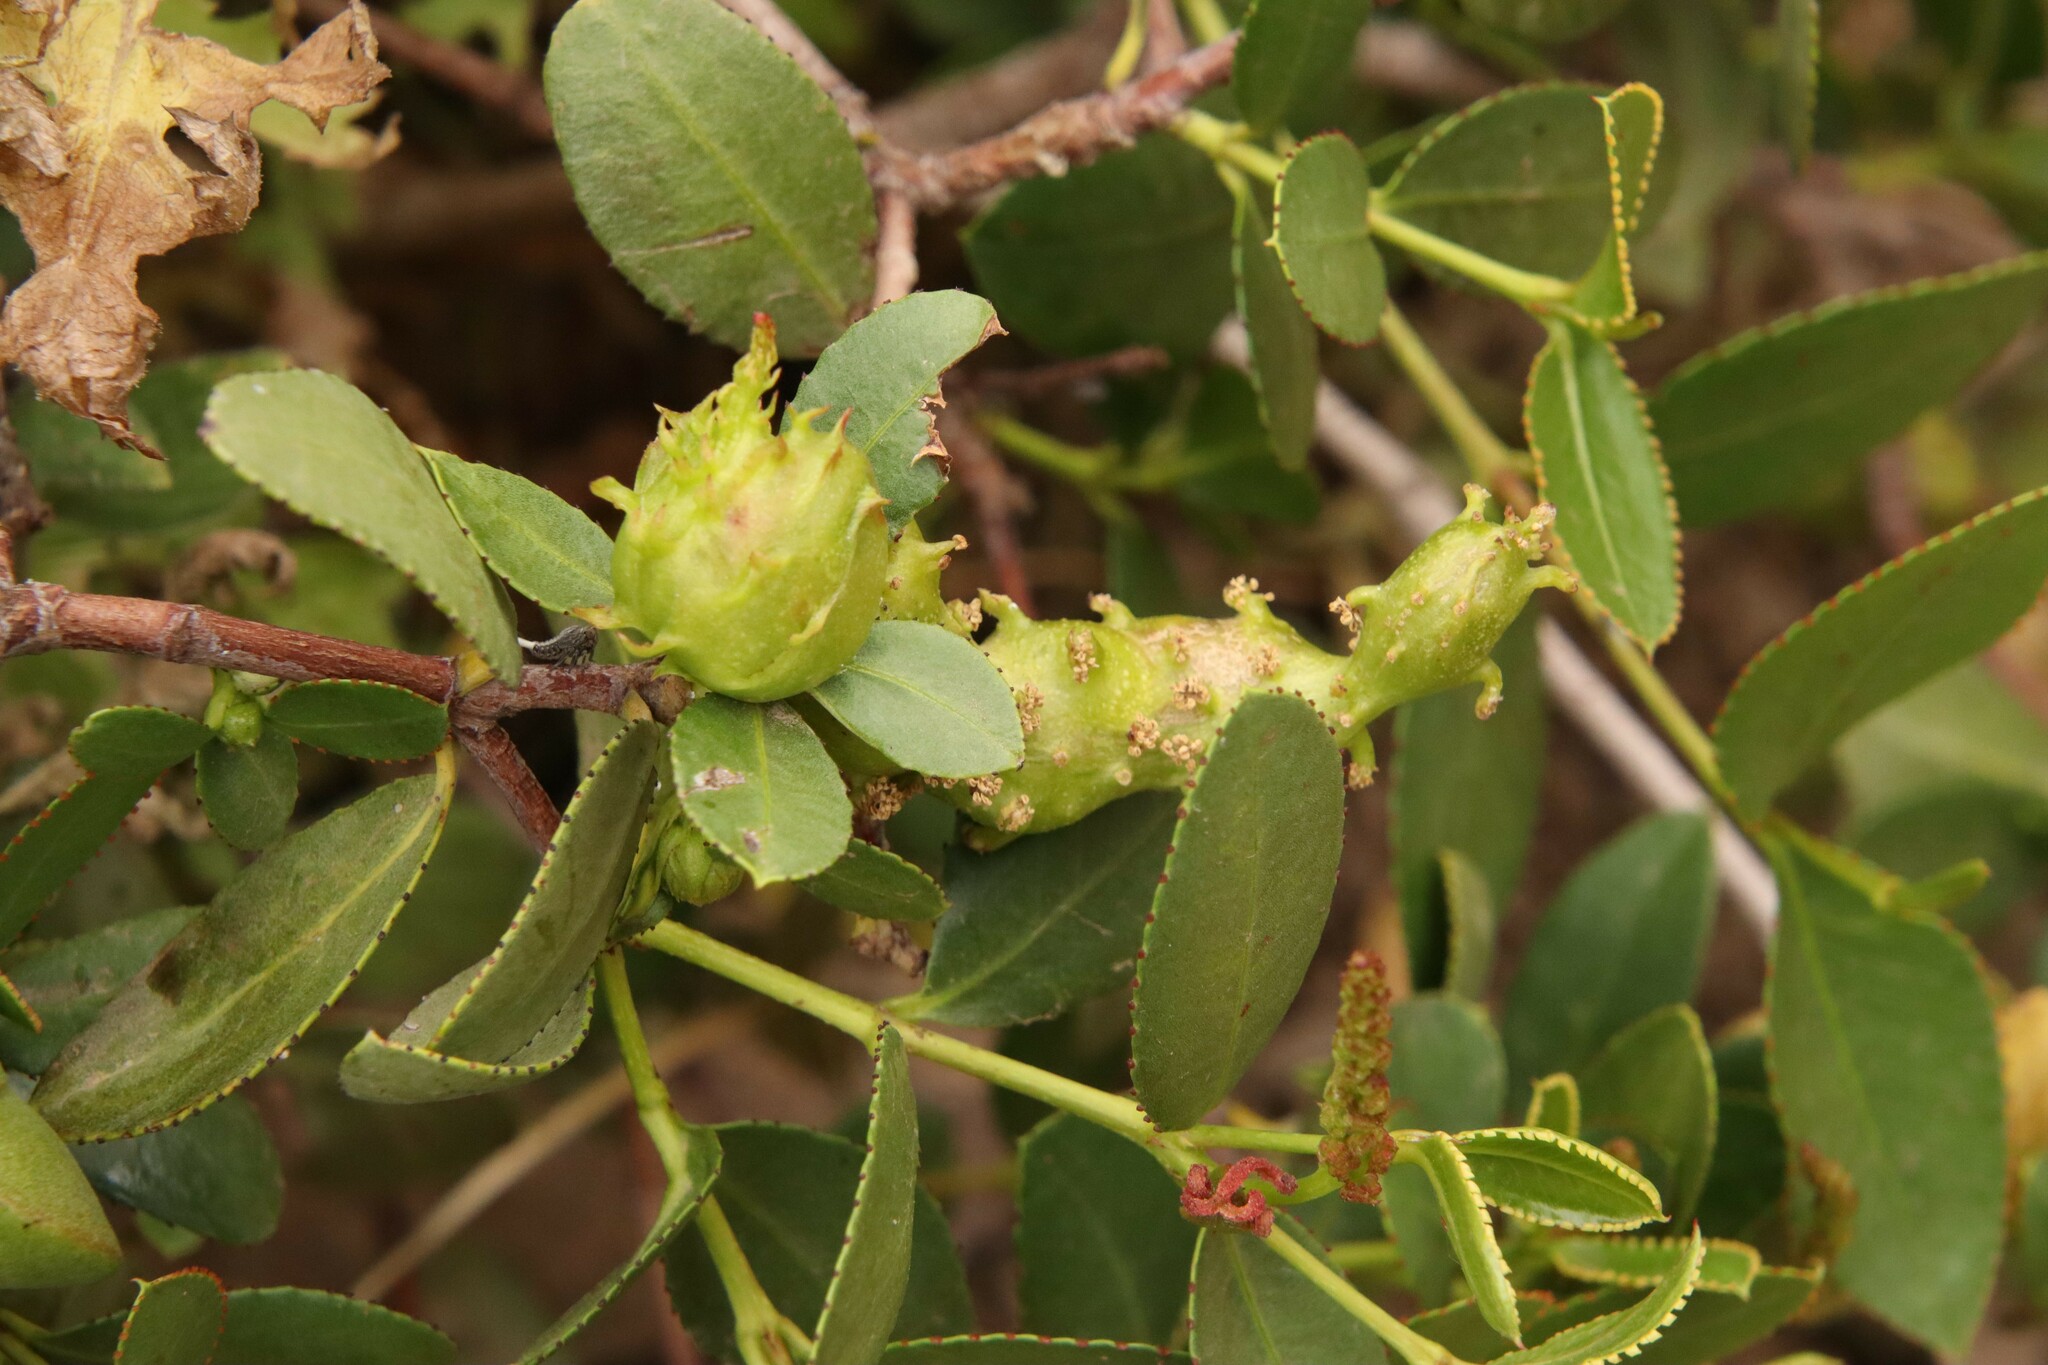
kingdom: Plantae
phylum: Tracheophyta
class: Magnoliopsida
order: Malpighiales
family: Euphorbiaceae
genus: Colliguaja
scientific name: Colliguaja odorifera
